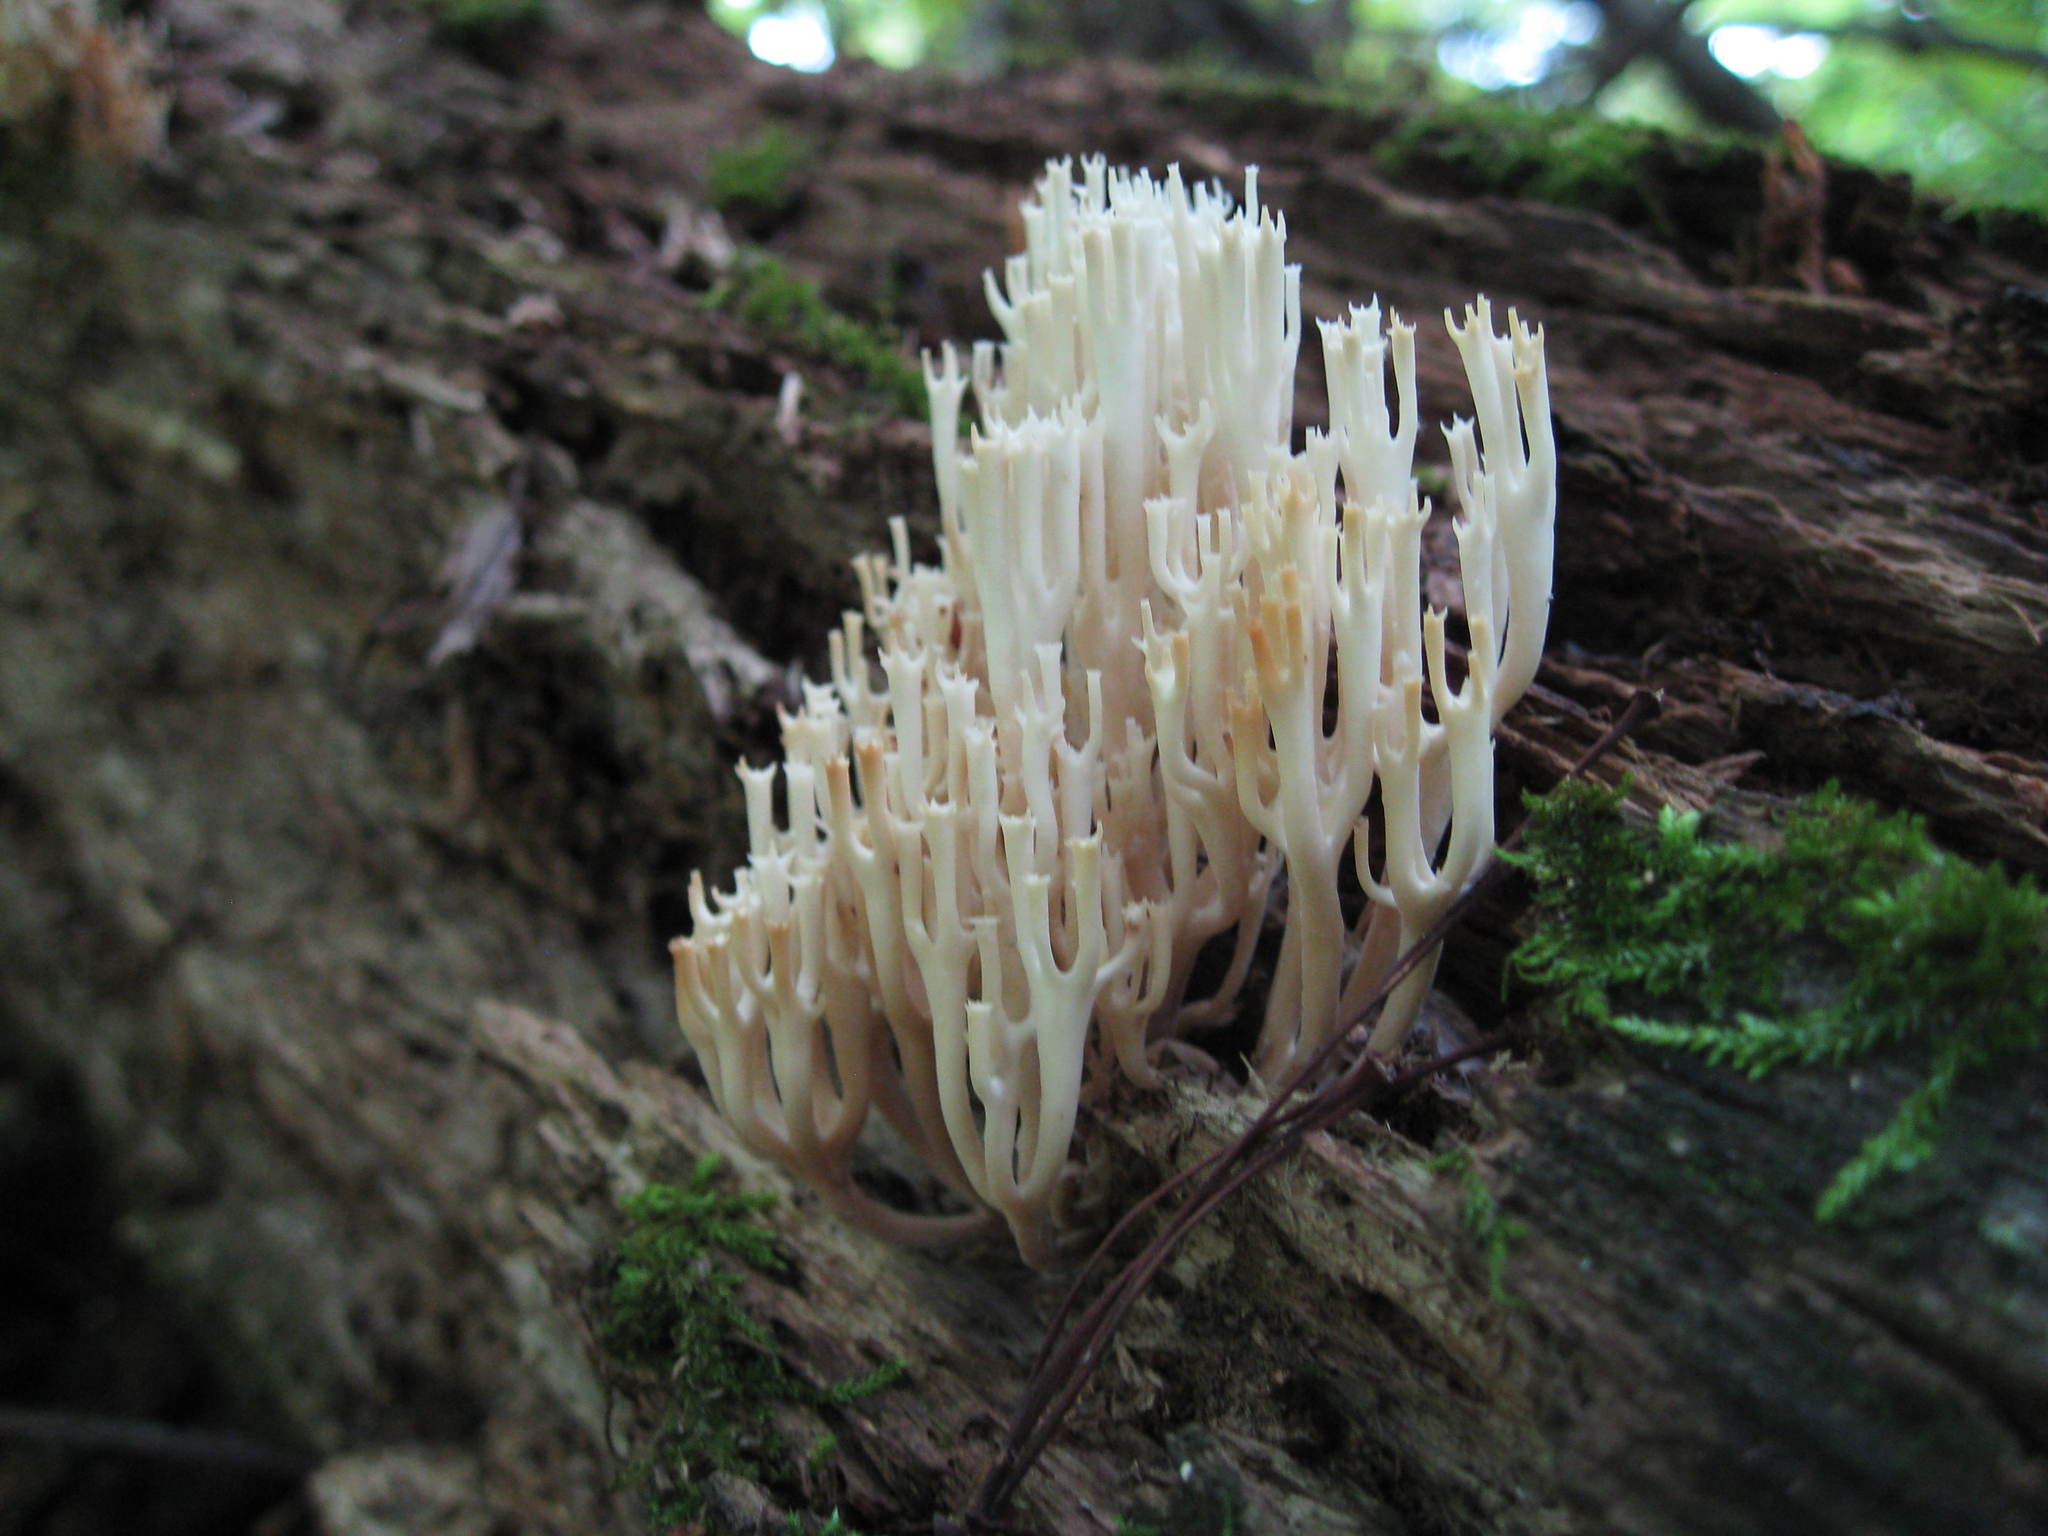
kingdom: Fungi
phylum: Basidiomycota
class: Agaricomycetes
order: Russulales
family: Auriscalpiaceae
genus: Artomyces
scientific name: Artomyces pyxidatus
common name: Crown-tipped coral fungus
